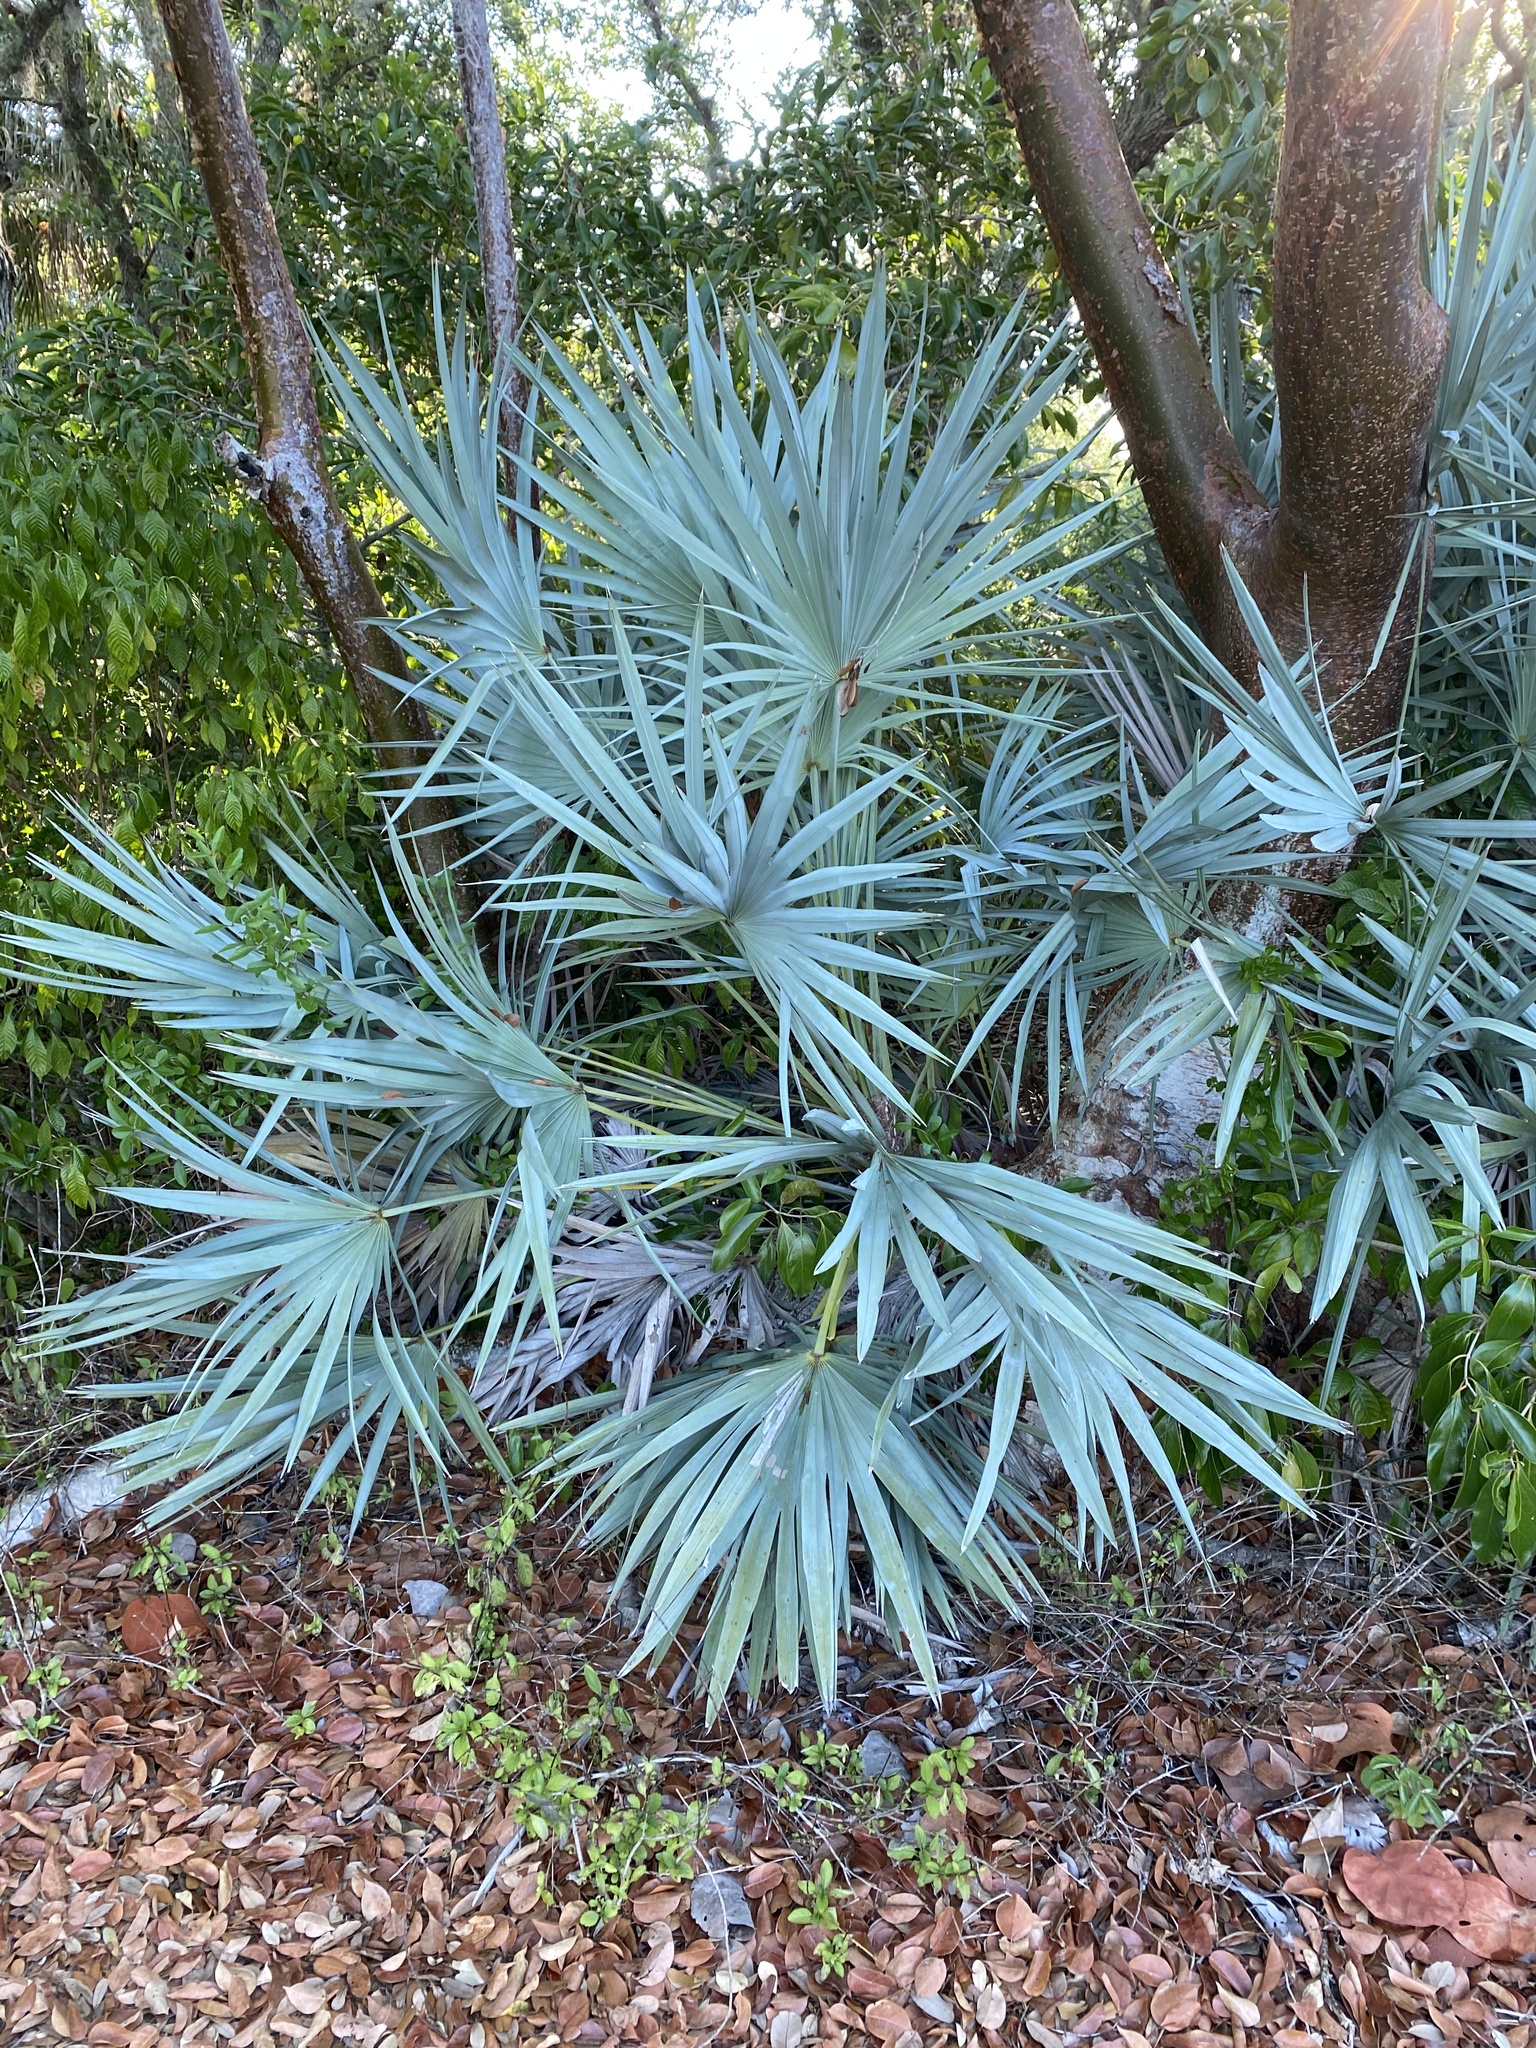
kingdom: Plantae
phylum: Tracheophyta
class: Liliopsida
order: Arecales
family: Arecaceae
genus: Serenoa
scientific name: Serenoa repens
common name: Saw-palmetto
